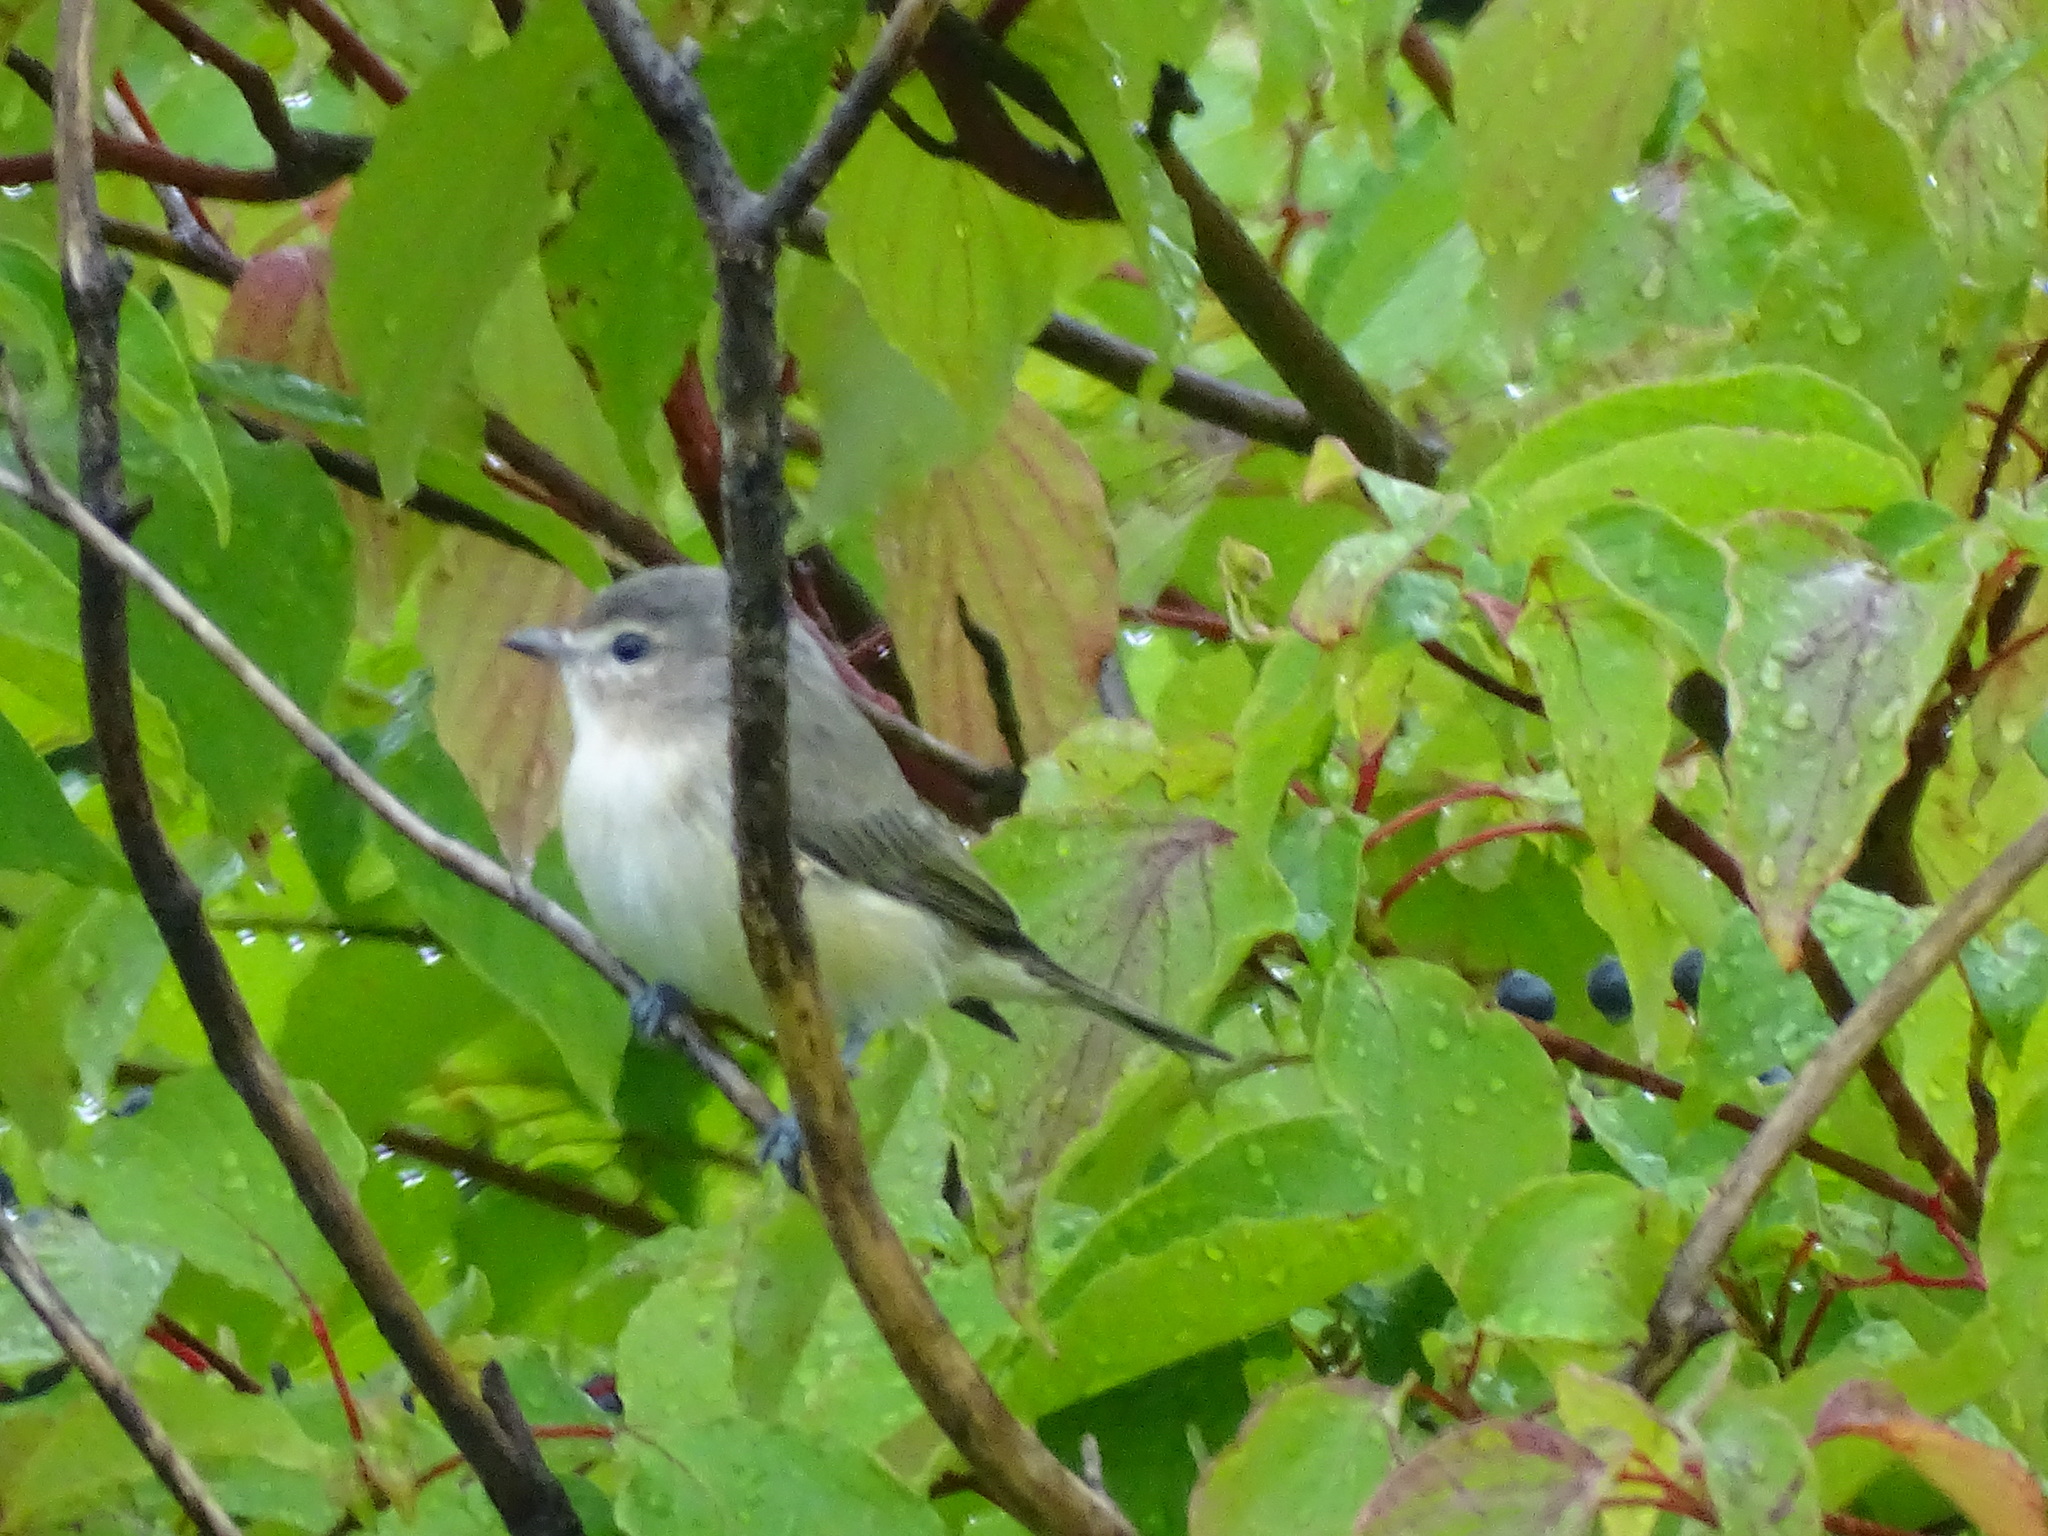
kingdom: Animalia
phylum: Chordata
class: Aves
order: Passeriformes
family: Vireonidae
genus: Vireo
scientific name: Vireo gilvus
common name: Warbling vireo
